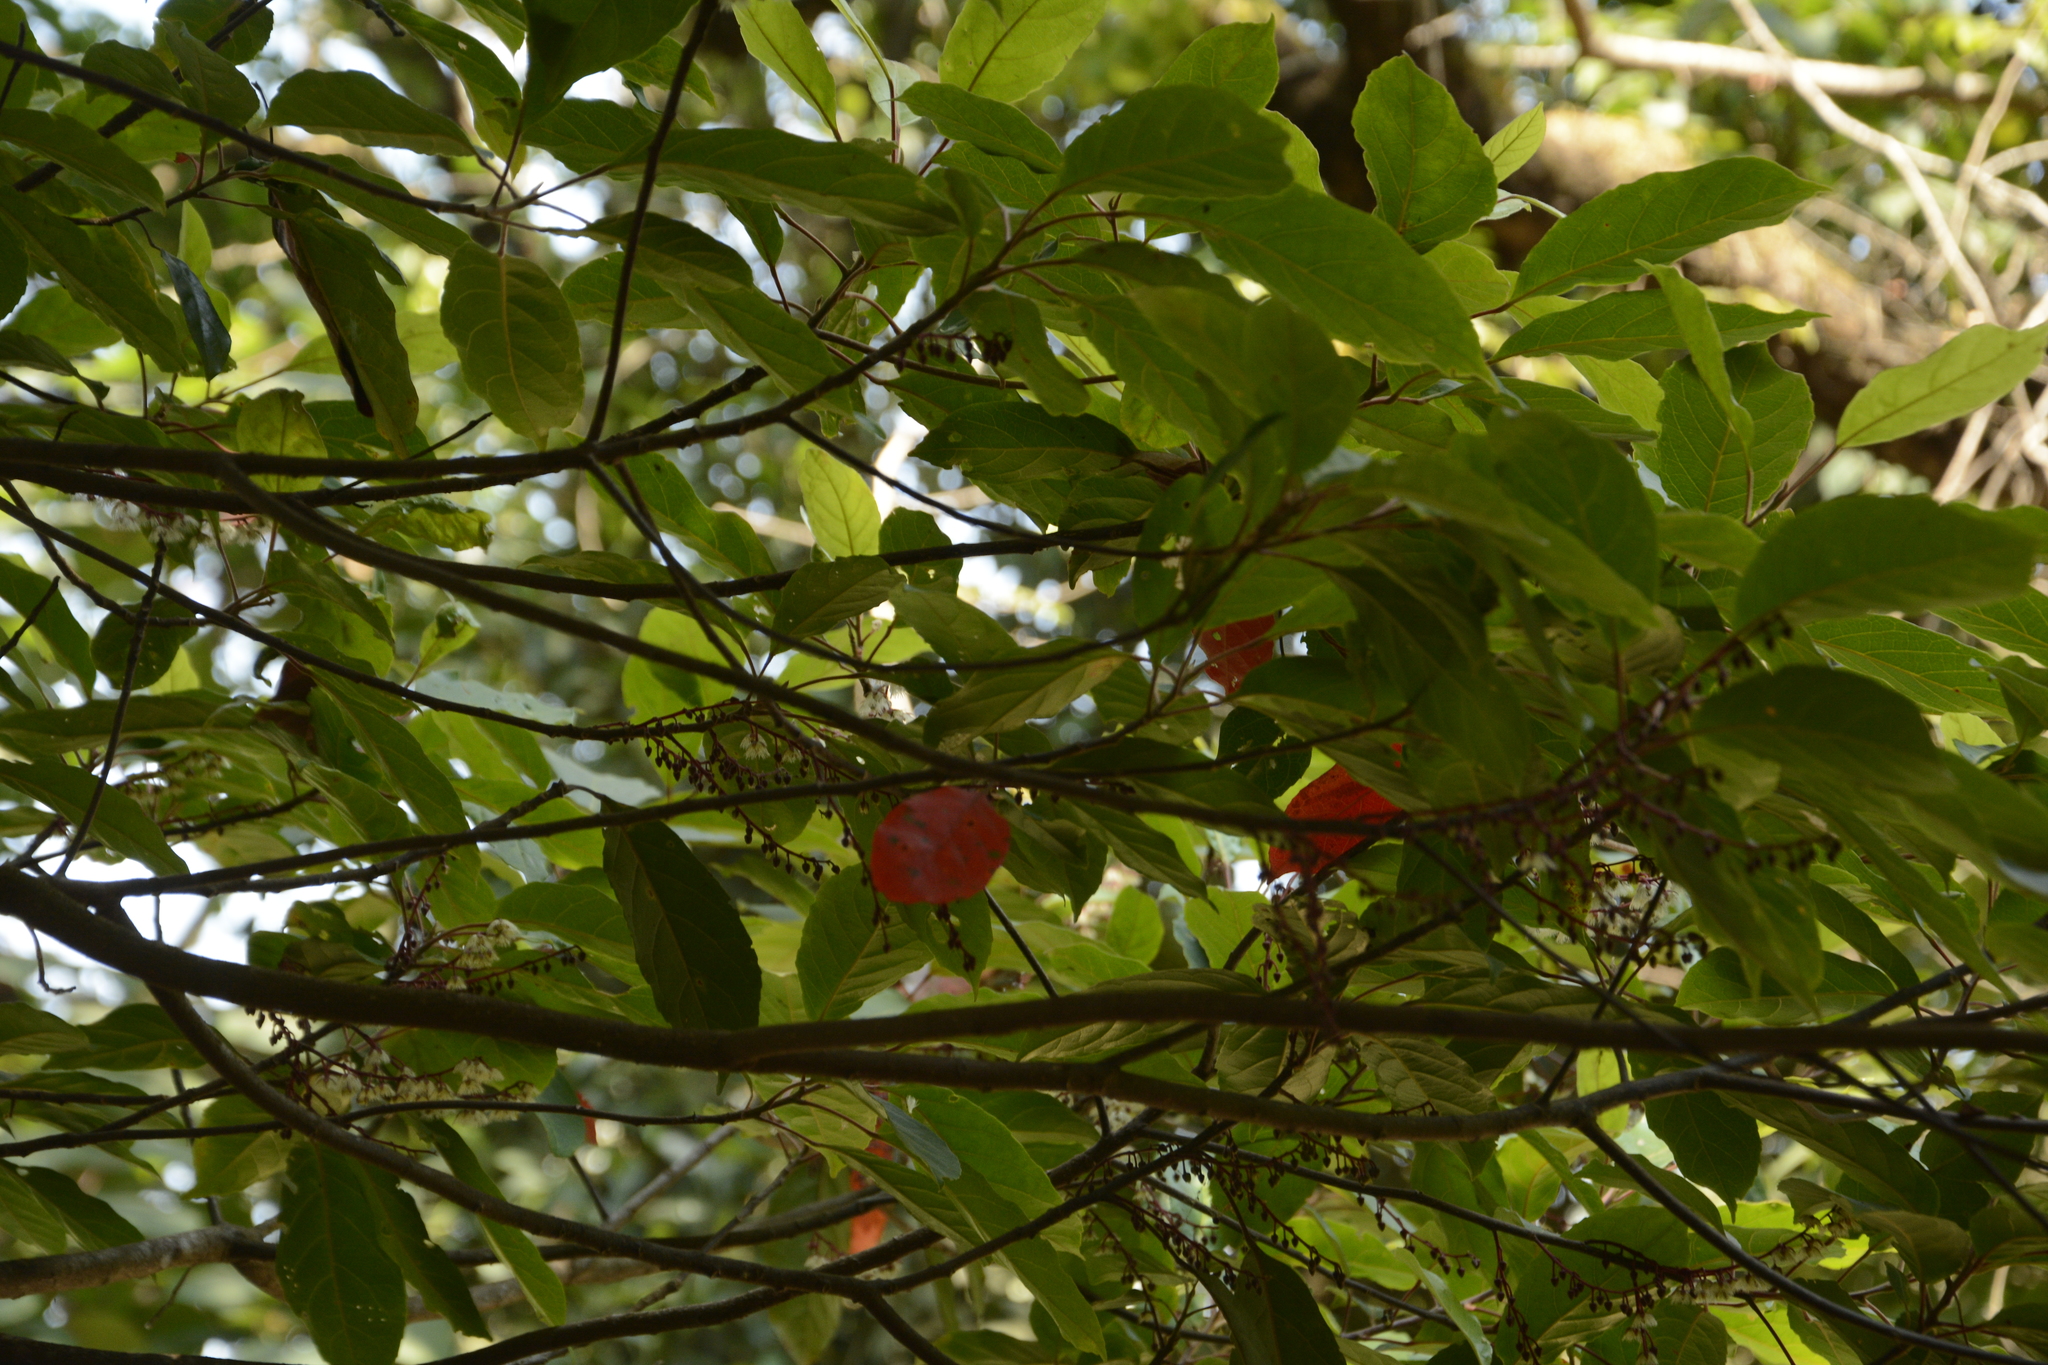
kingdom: Plantae
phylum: Tracheophyta
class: Magnoliopsida
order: Oxalidales
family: Elaeocarpaceae
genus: Elaeocarpus
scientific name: Elaeocarpus variabilis
